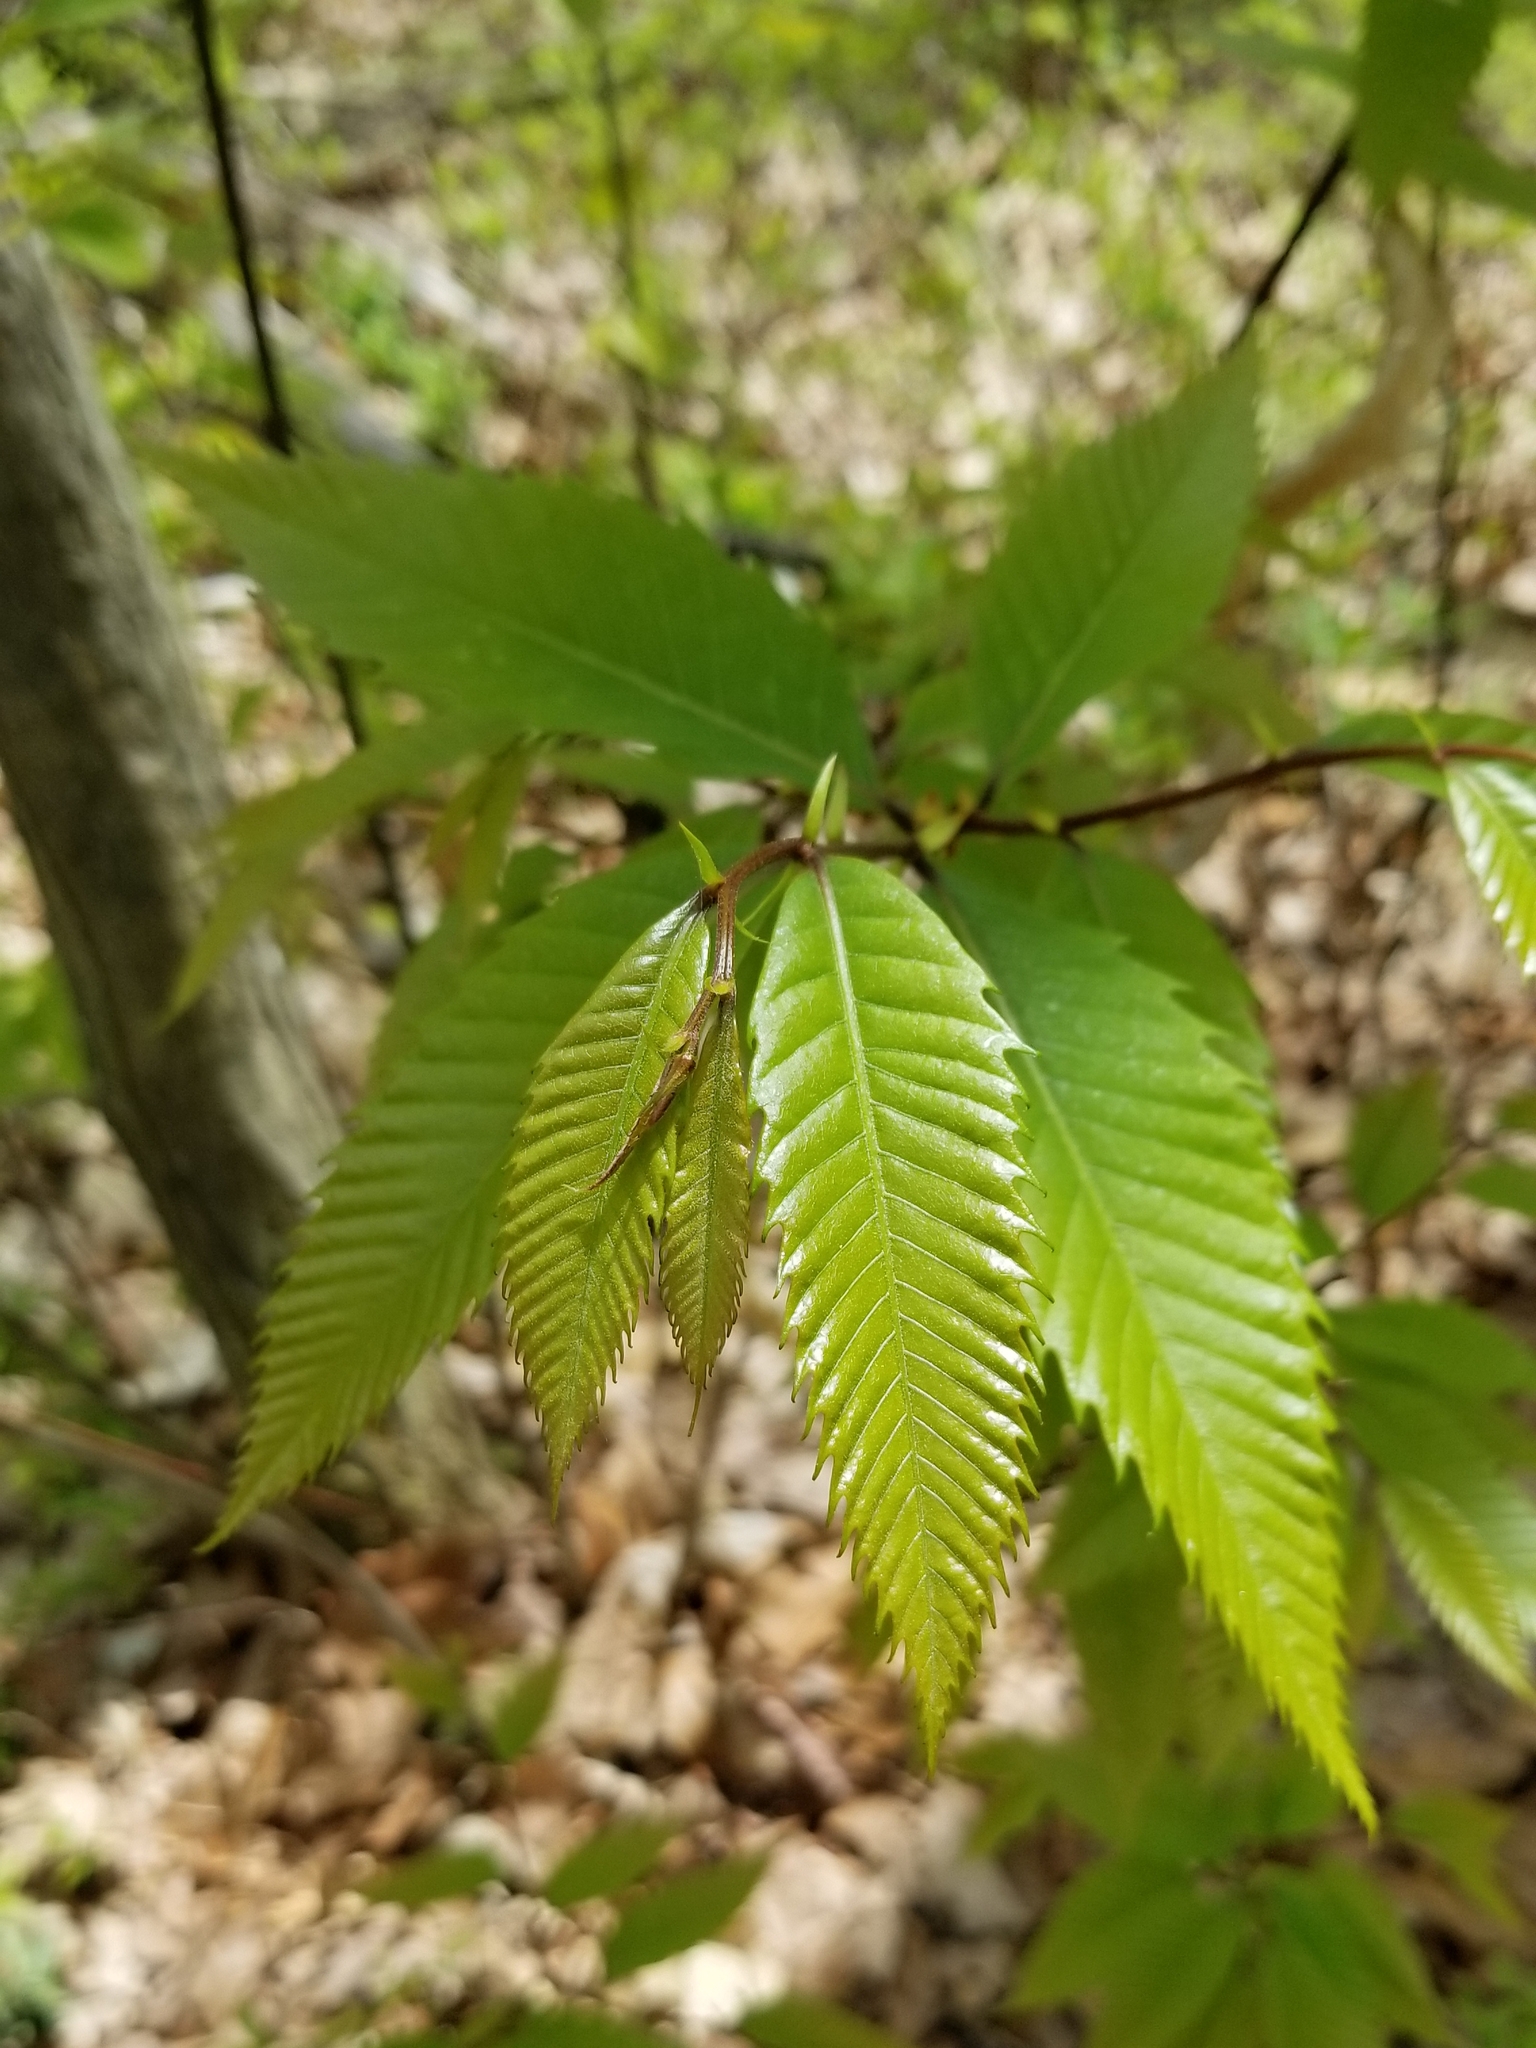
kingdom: Plantae
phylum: Tracheophyta
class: Magnoliopsida
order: Fagales
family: Fagaceae
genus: Castanea
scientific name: Castanea dentata
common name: American chestnut
